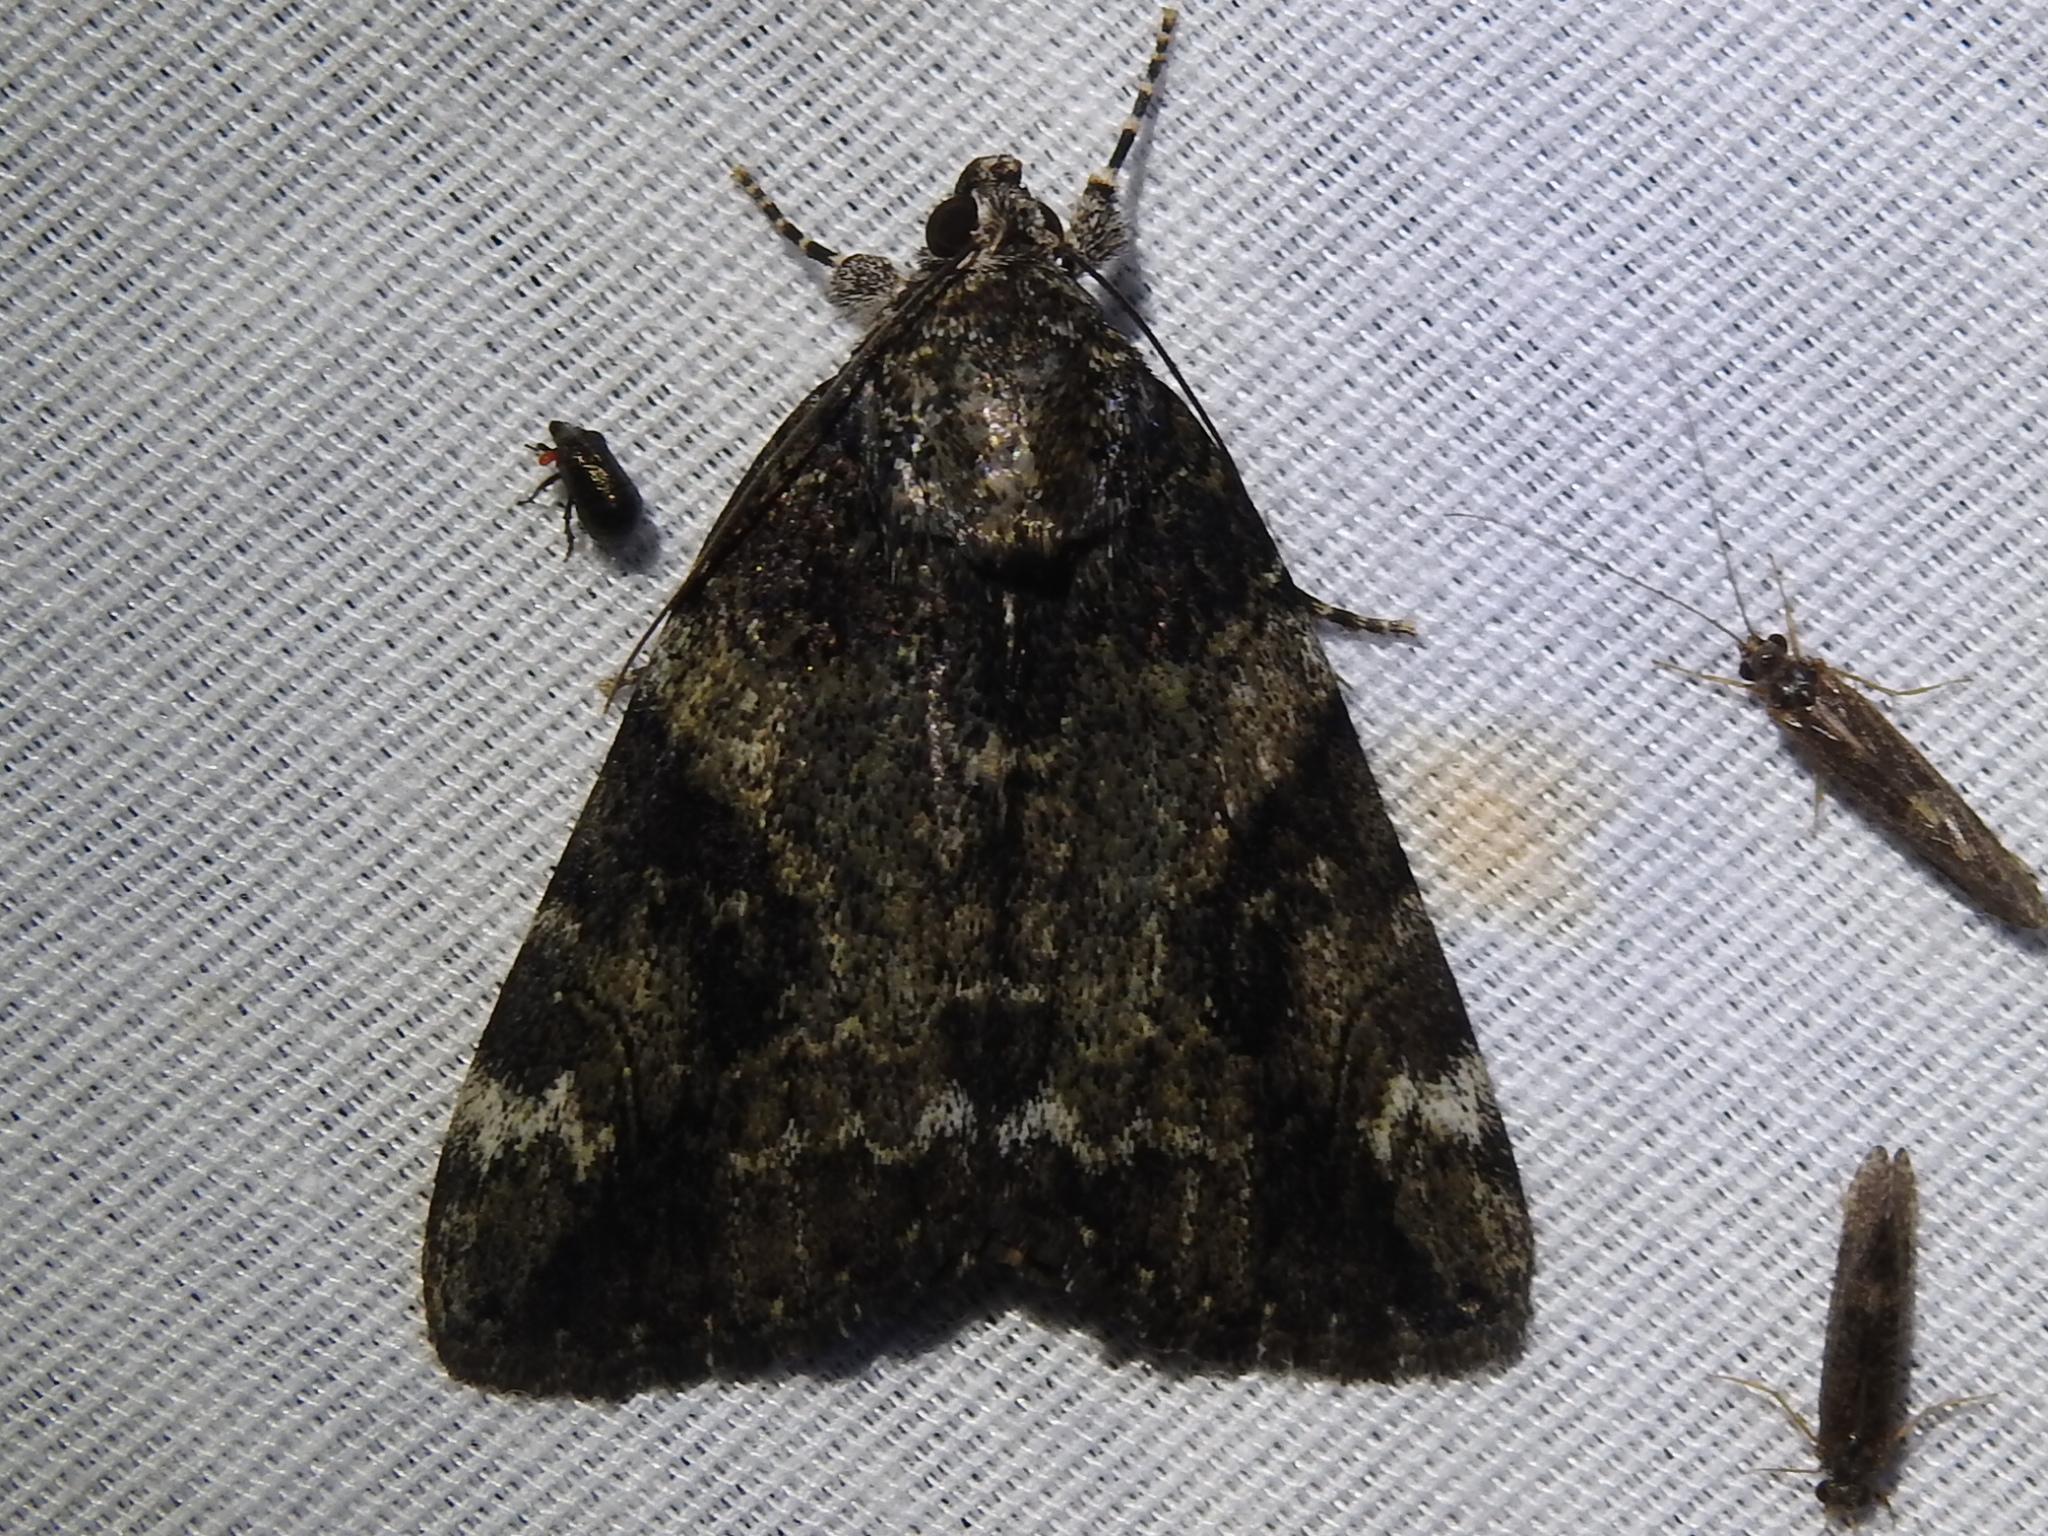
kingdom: Animalia
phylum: Arthropoda
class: Insecta
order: Lepidoptera
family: Erebidae
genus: Catocala
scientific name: Catocala micronympha
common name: Little nymph underwing
